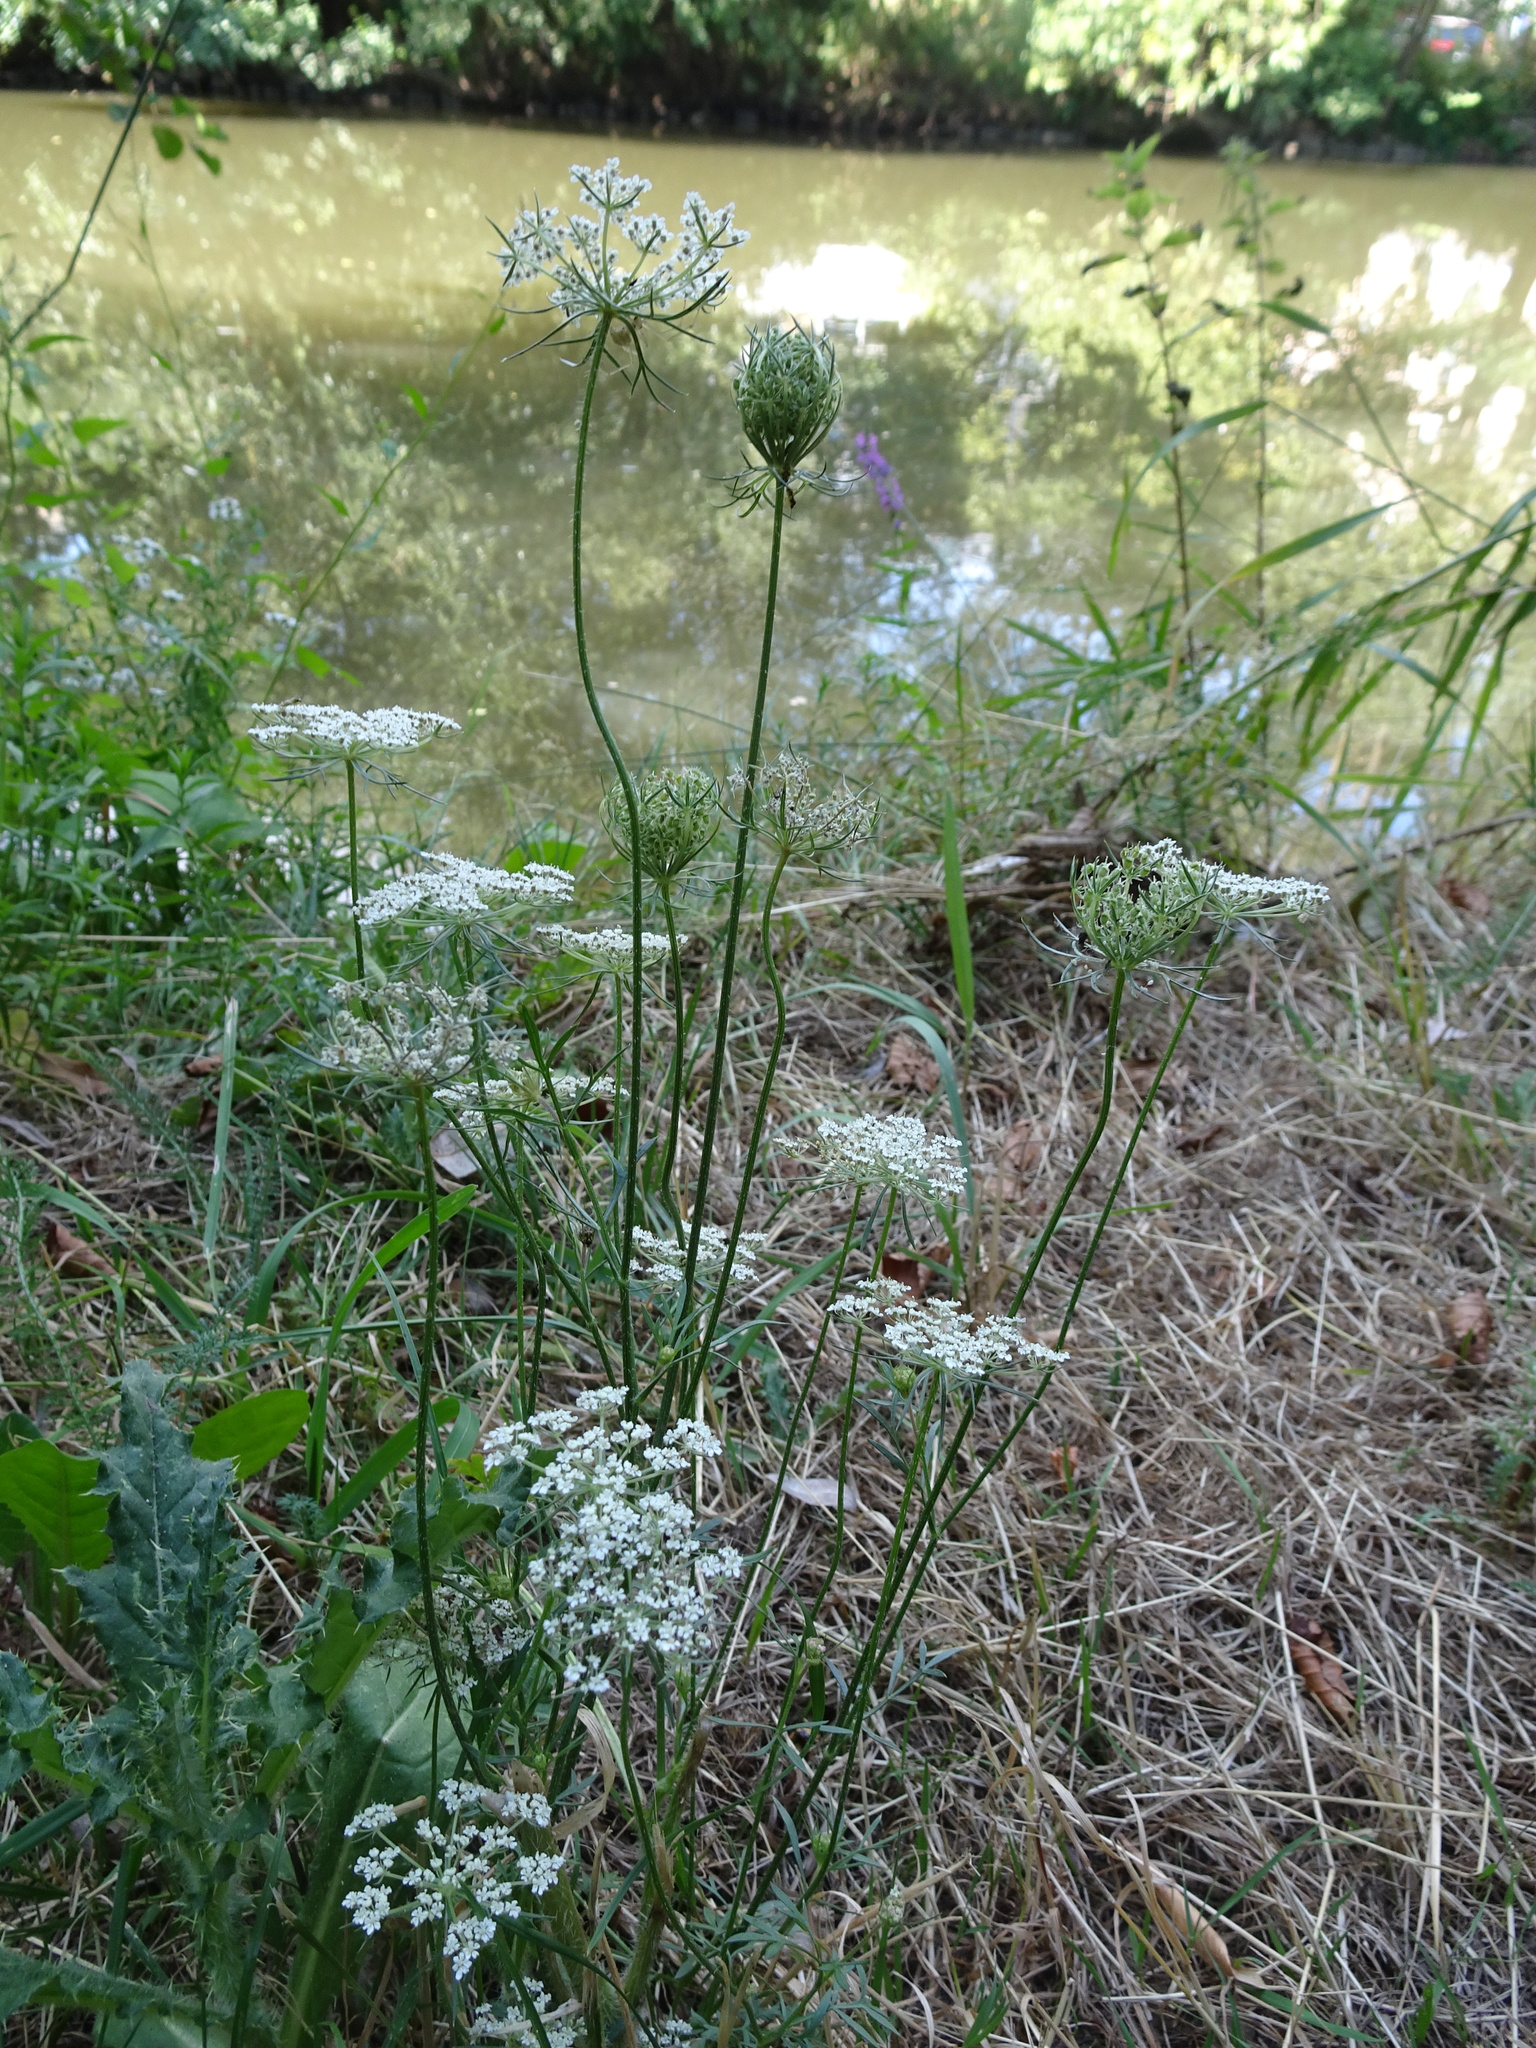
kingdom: Plantae
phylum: Tracheophyta
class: Magnoliopsida
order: Apiales
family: Apiaceae
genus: Daucus
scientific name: Daucus carota
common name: Wild carrot
